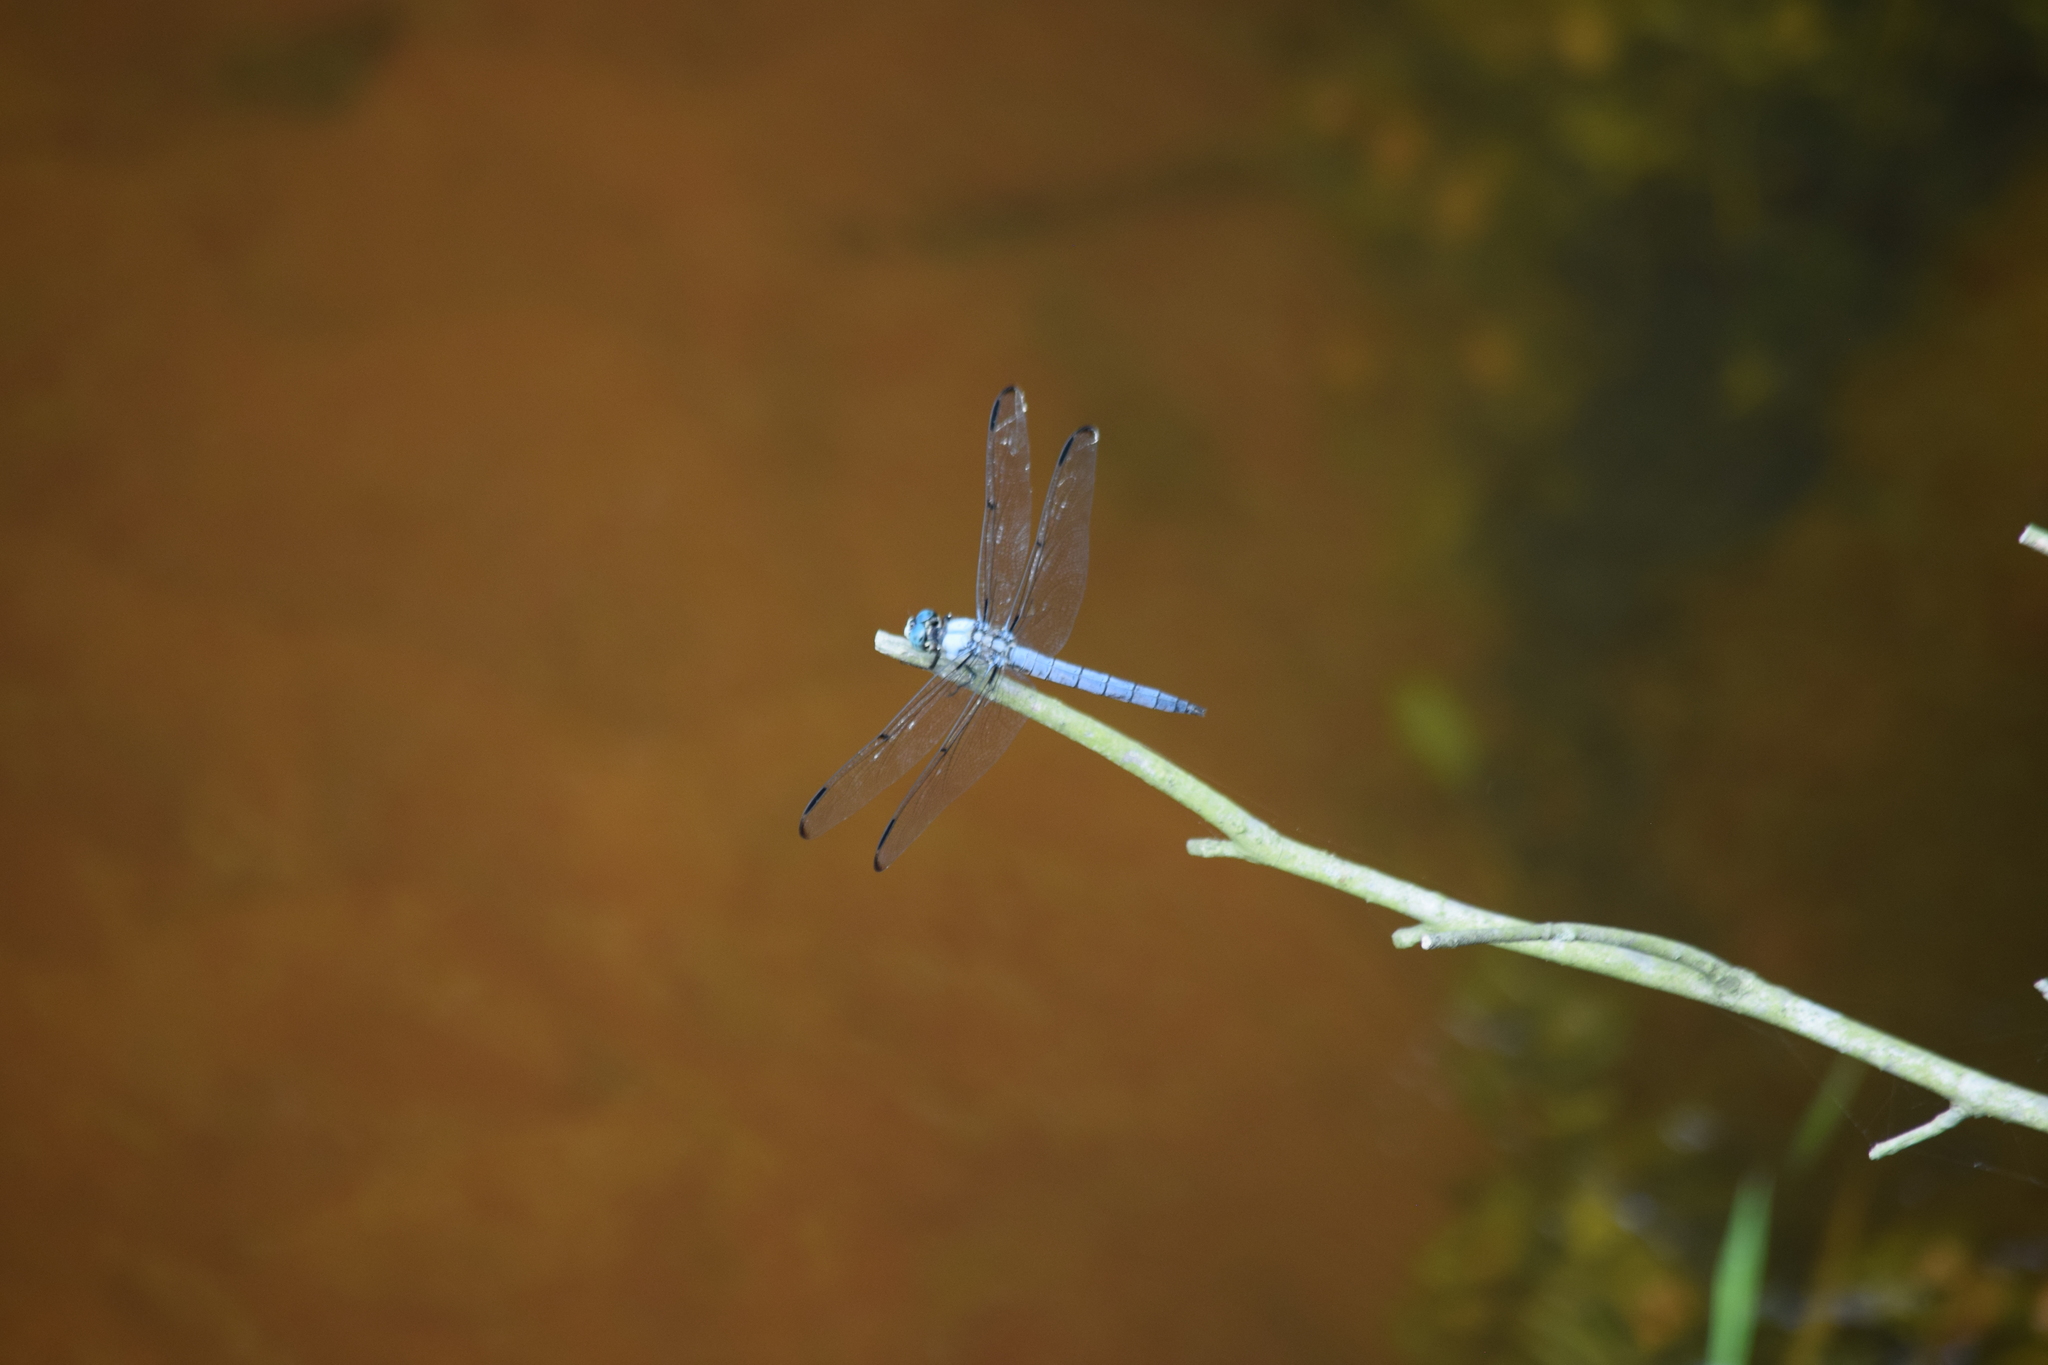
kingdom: Animalia
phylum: Arthropoda
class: Insecta
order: Odonata
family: Libellulidae
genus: Libellula
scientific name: Libellula vibrans
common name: Great blue skimmer
